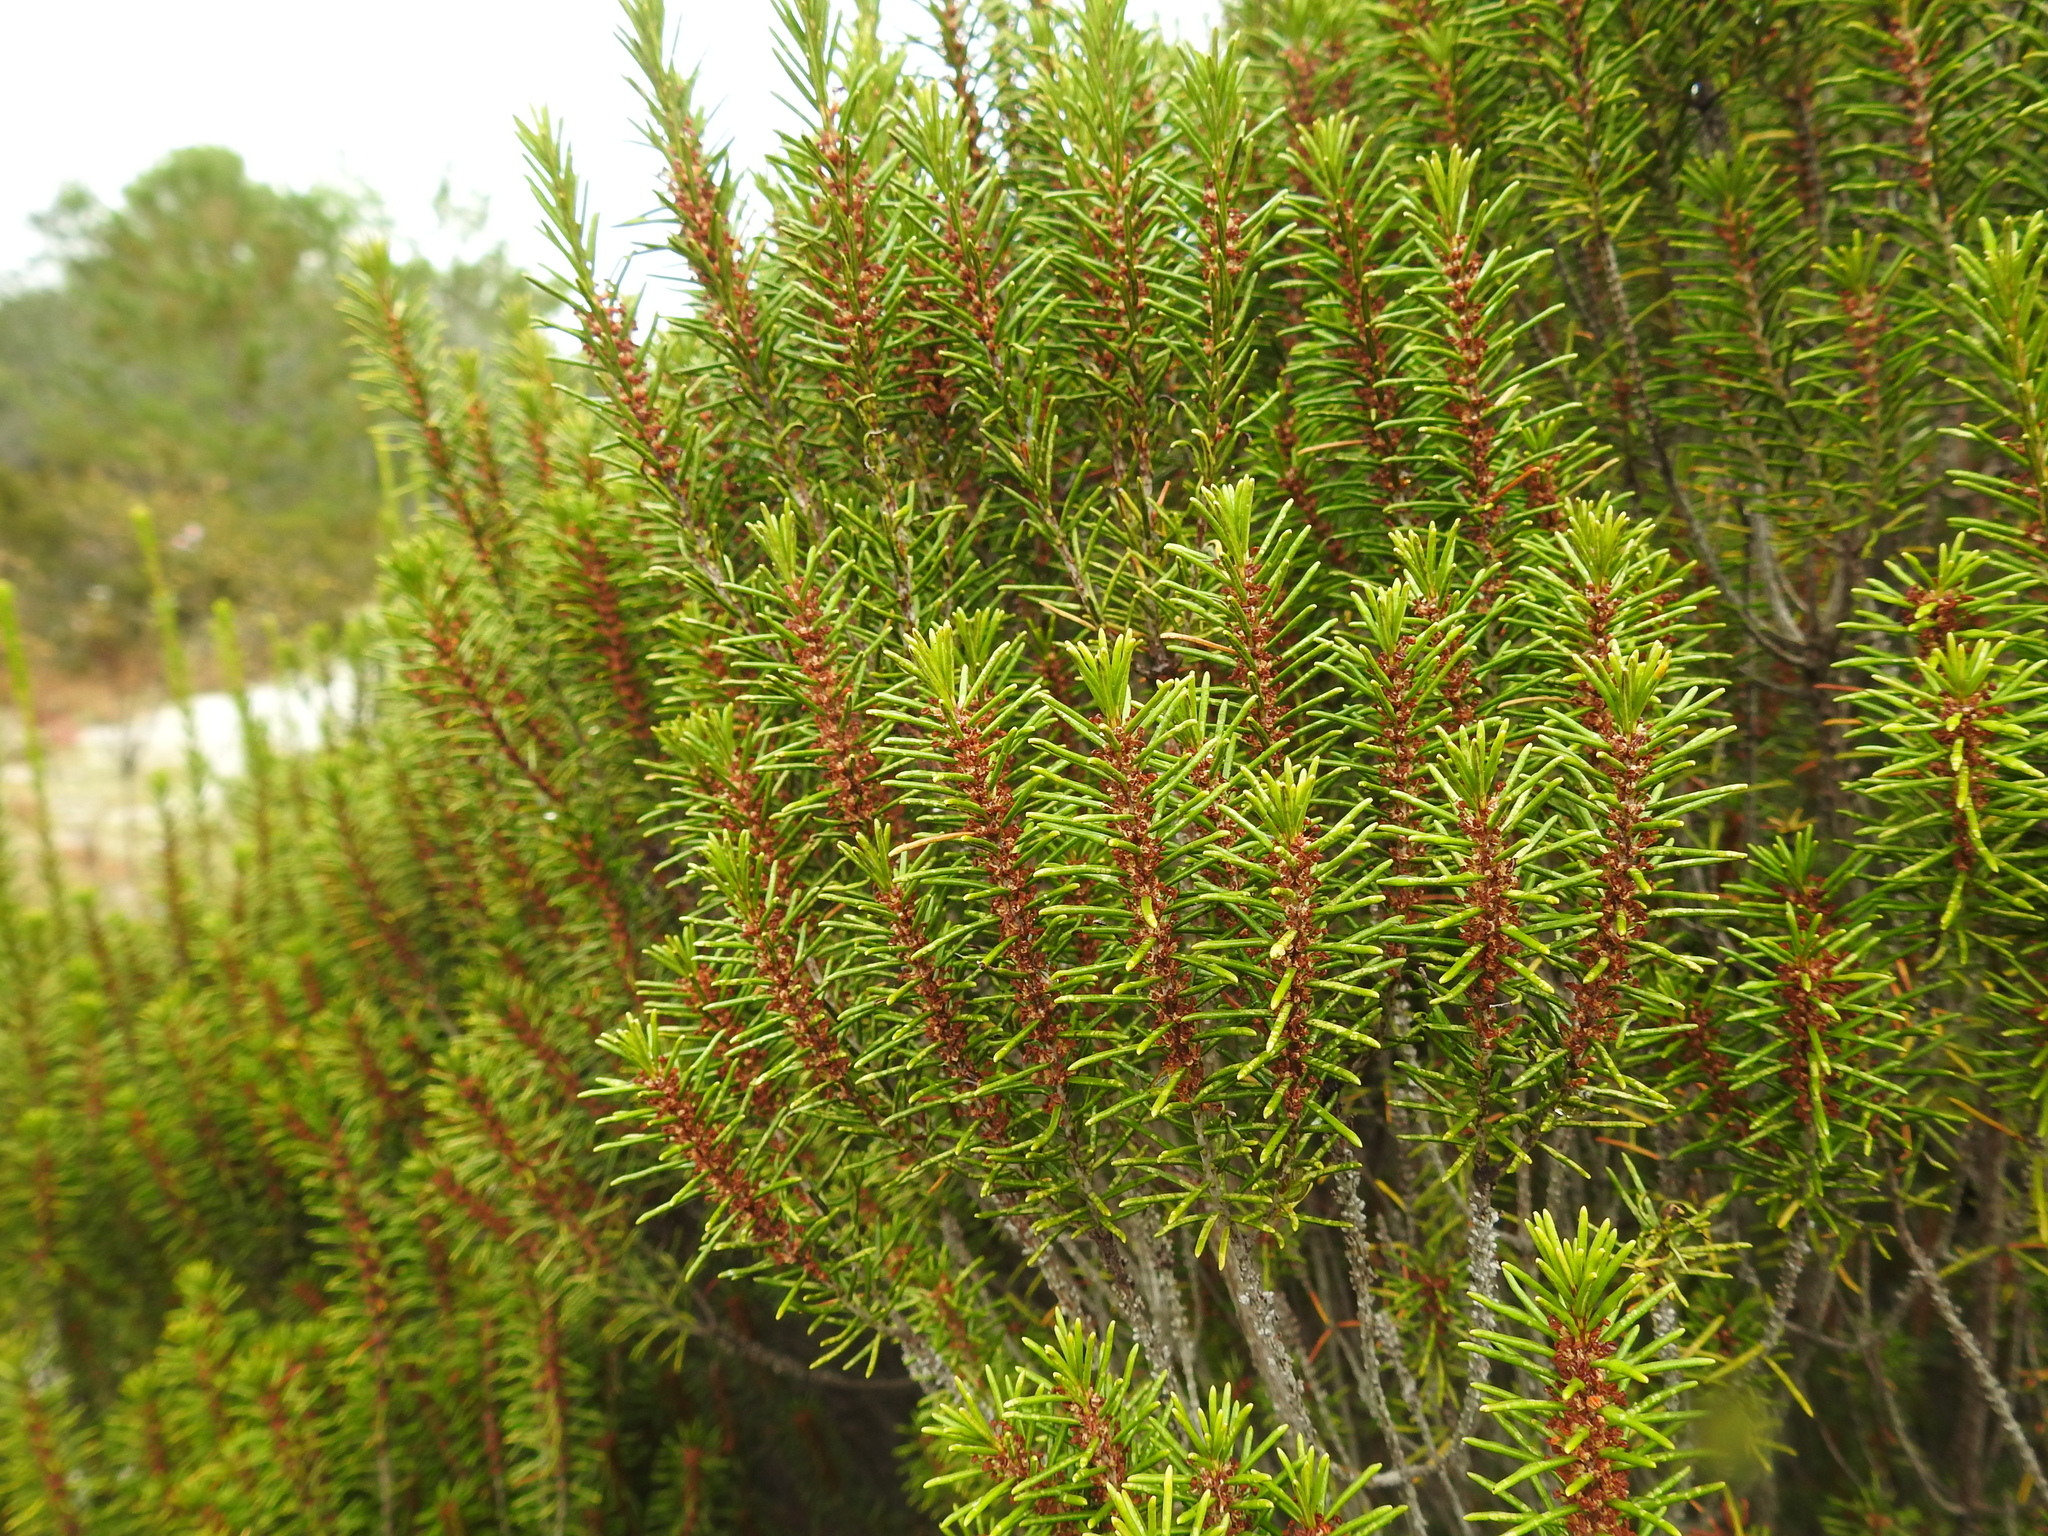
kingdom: Plantae
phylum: Tracheophyta
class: Magnoliopsida
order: Ericales
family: Ericaceae
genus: Ceratiola
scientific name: Ceratiola ericoides
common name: Sandhill-rosemary
